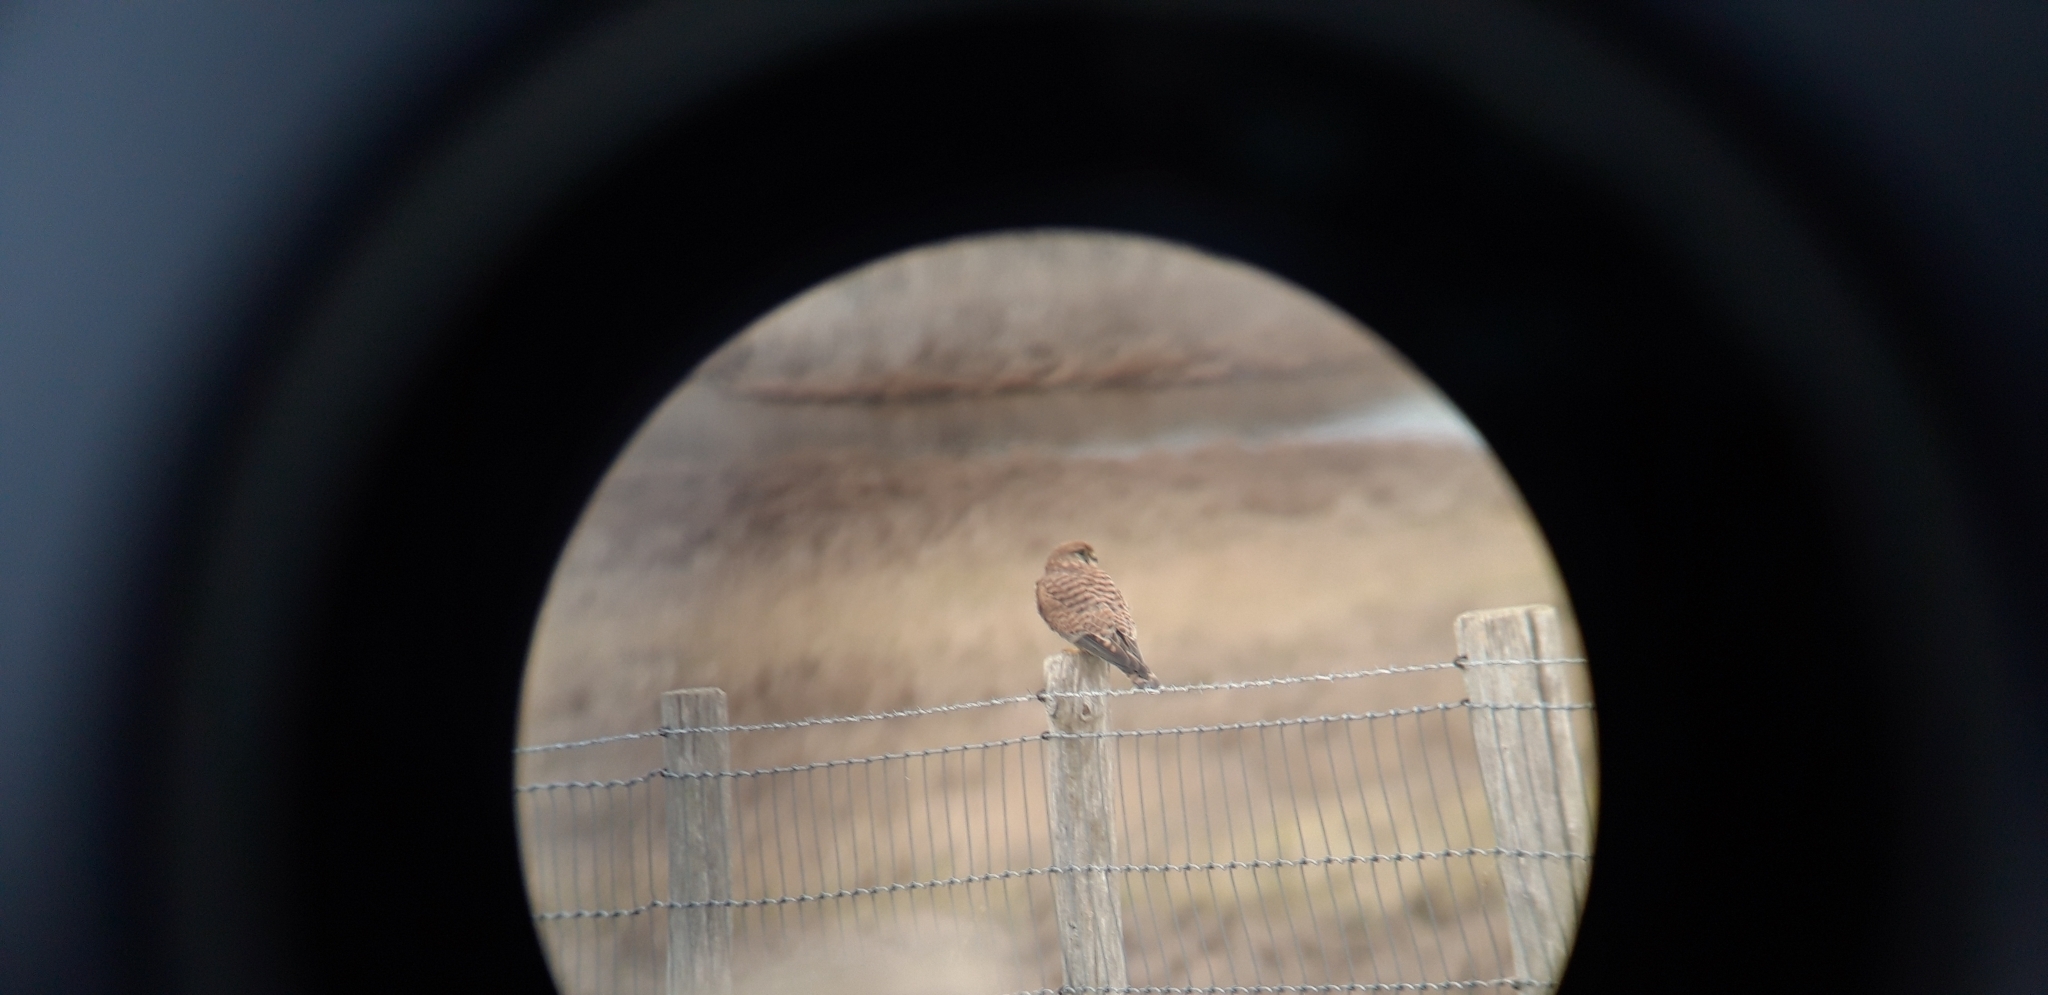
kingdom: Animalia
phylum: Chordata
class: Aves
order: Falconiformes
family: Falconidae
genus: Falco
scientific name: Falco tinnunculus
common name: Common kestrel
